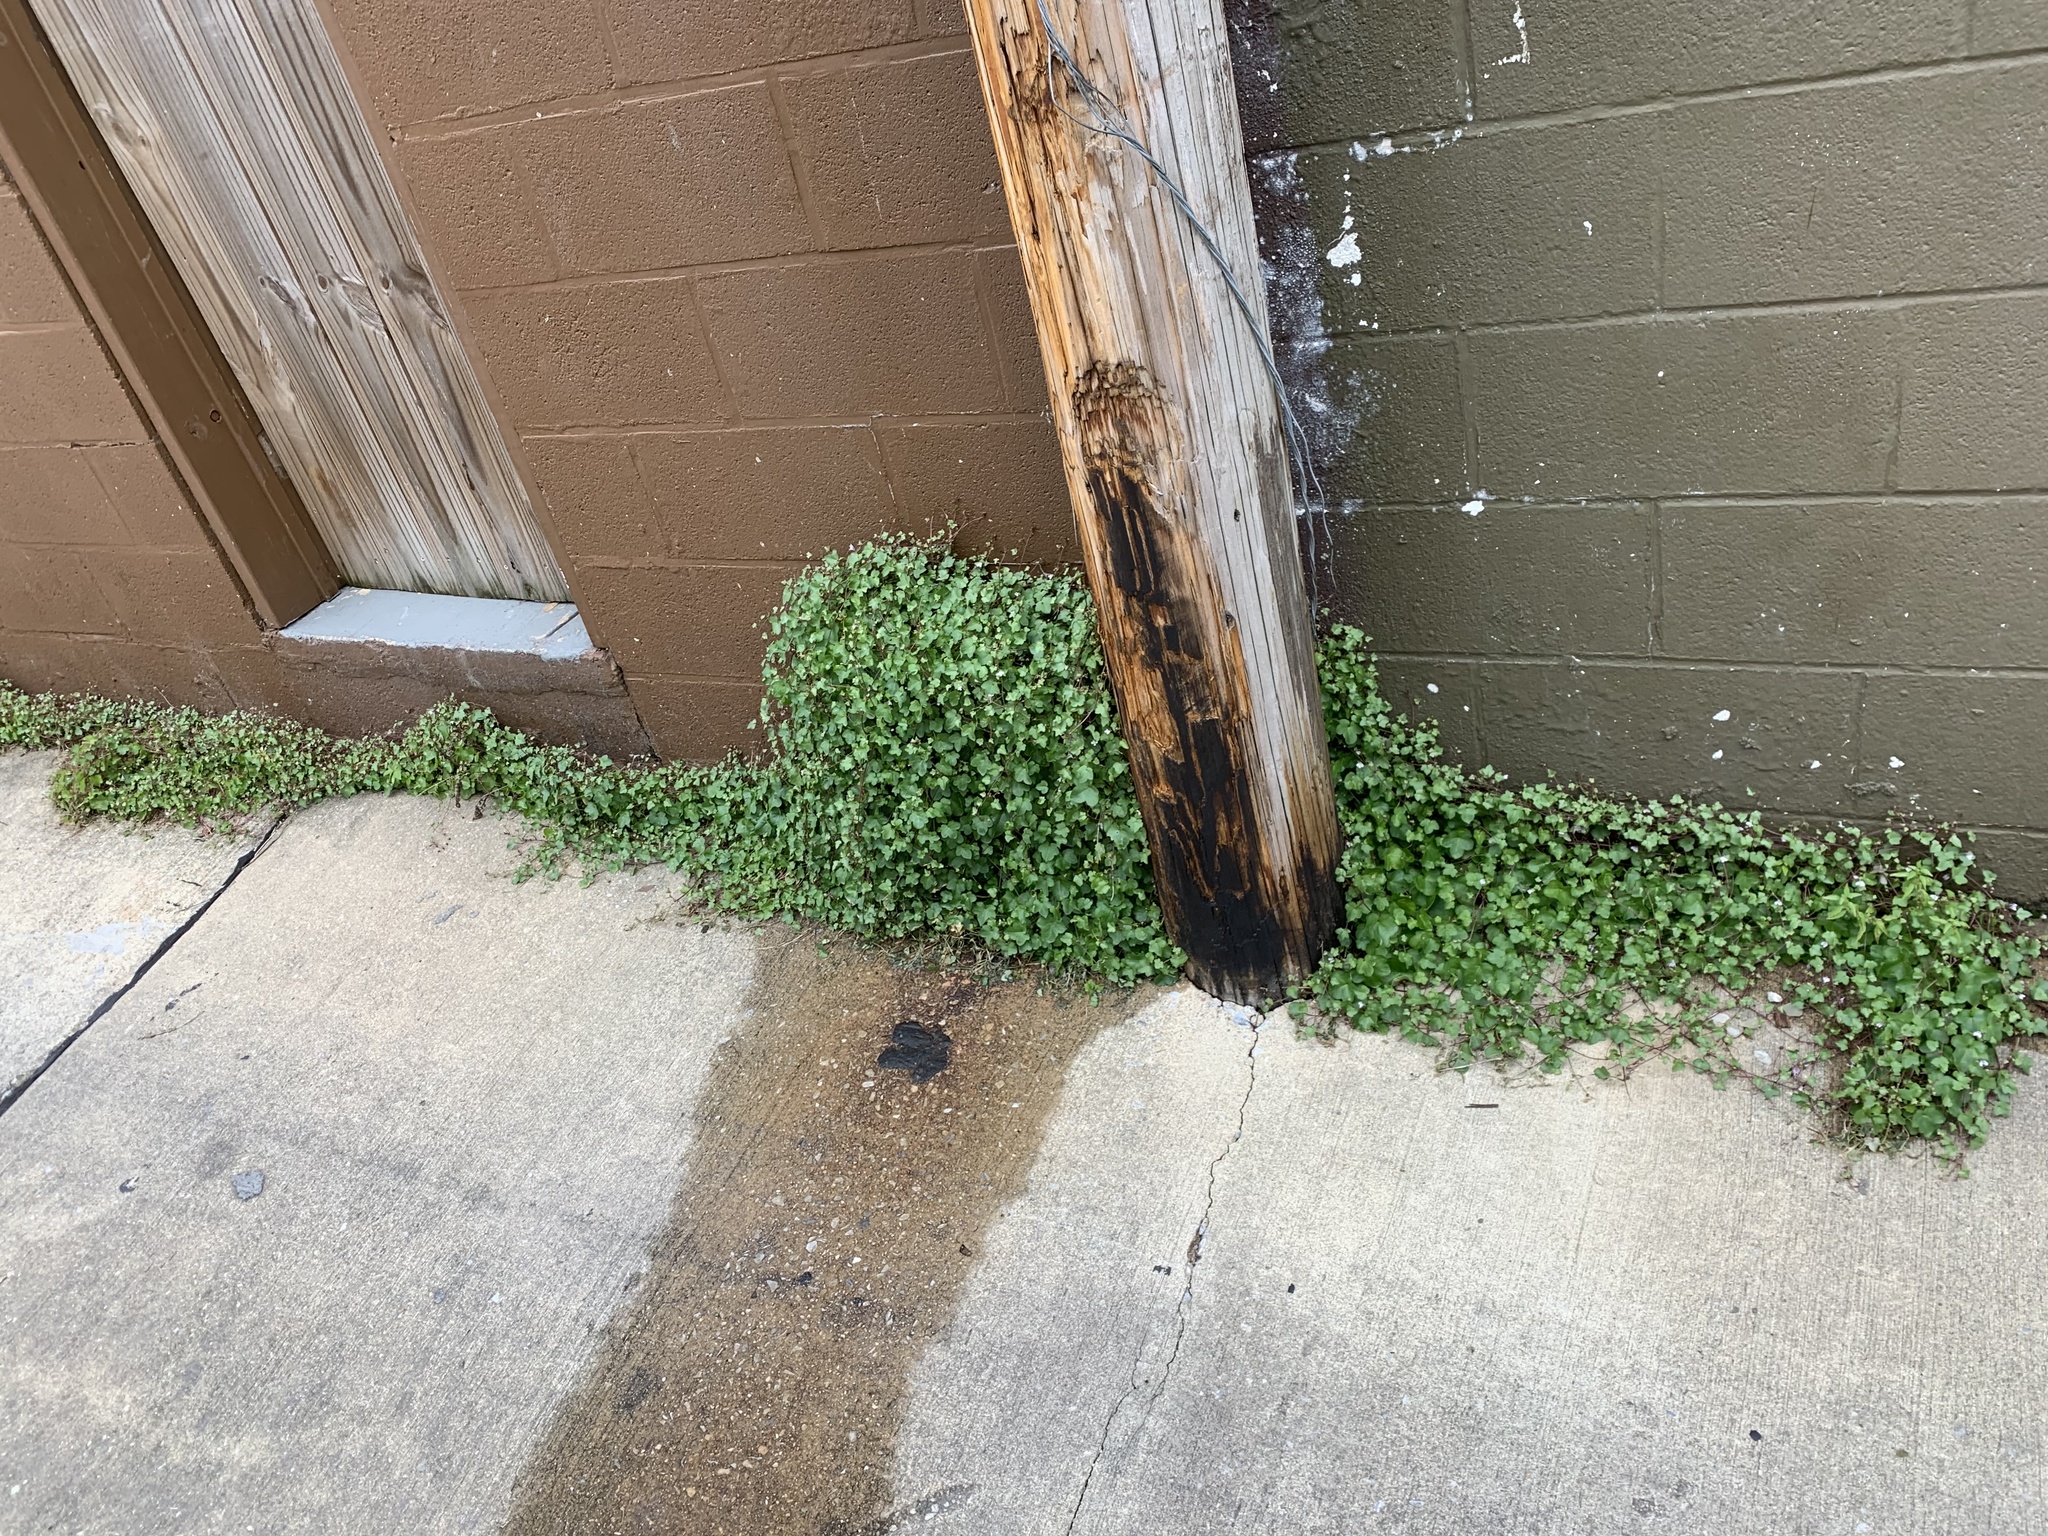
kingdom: Plantae
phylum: Tracheophyta
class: Magnoliopsida
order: Lamiales
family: Plantaginaceae
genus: Cymbalaria
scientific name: Cymbalaria muralis
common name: Ivy-leaved toadflax
